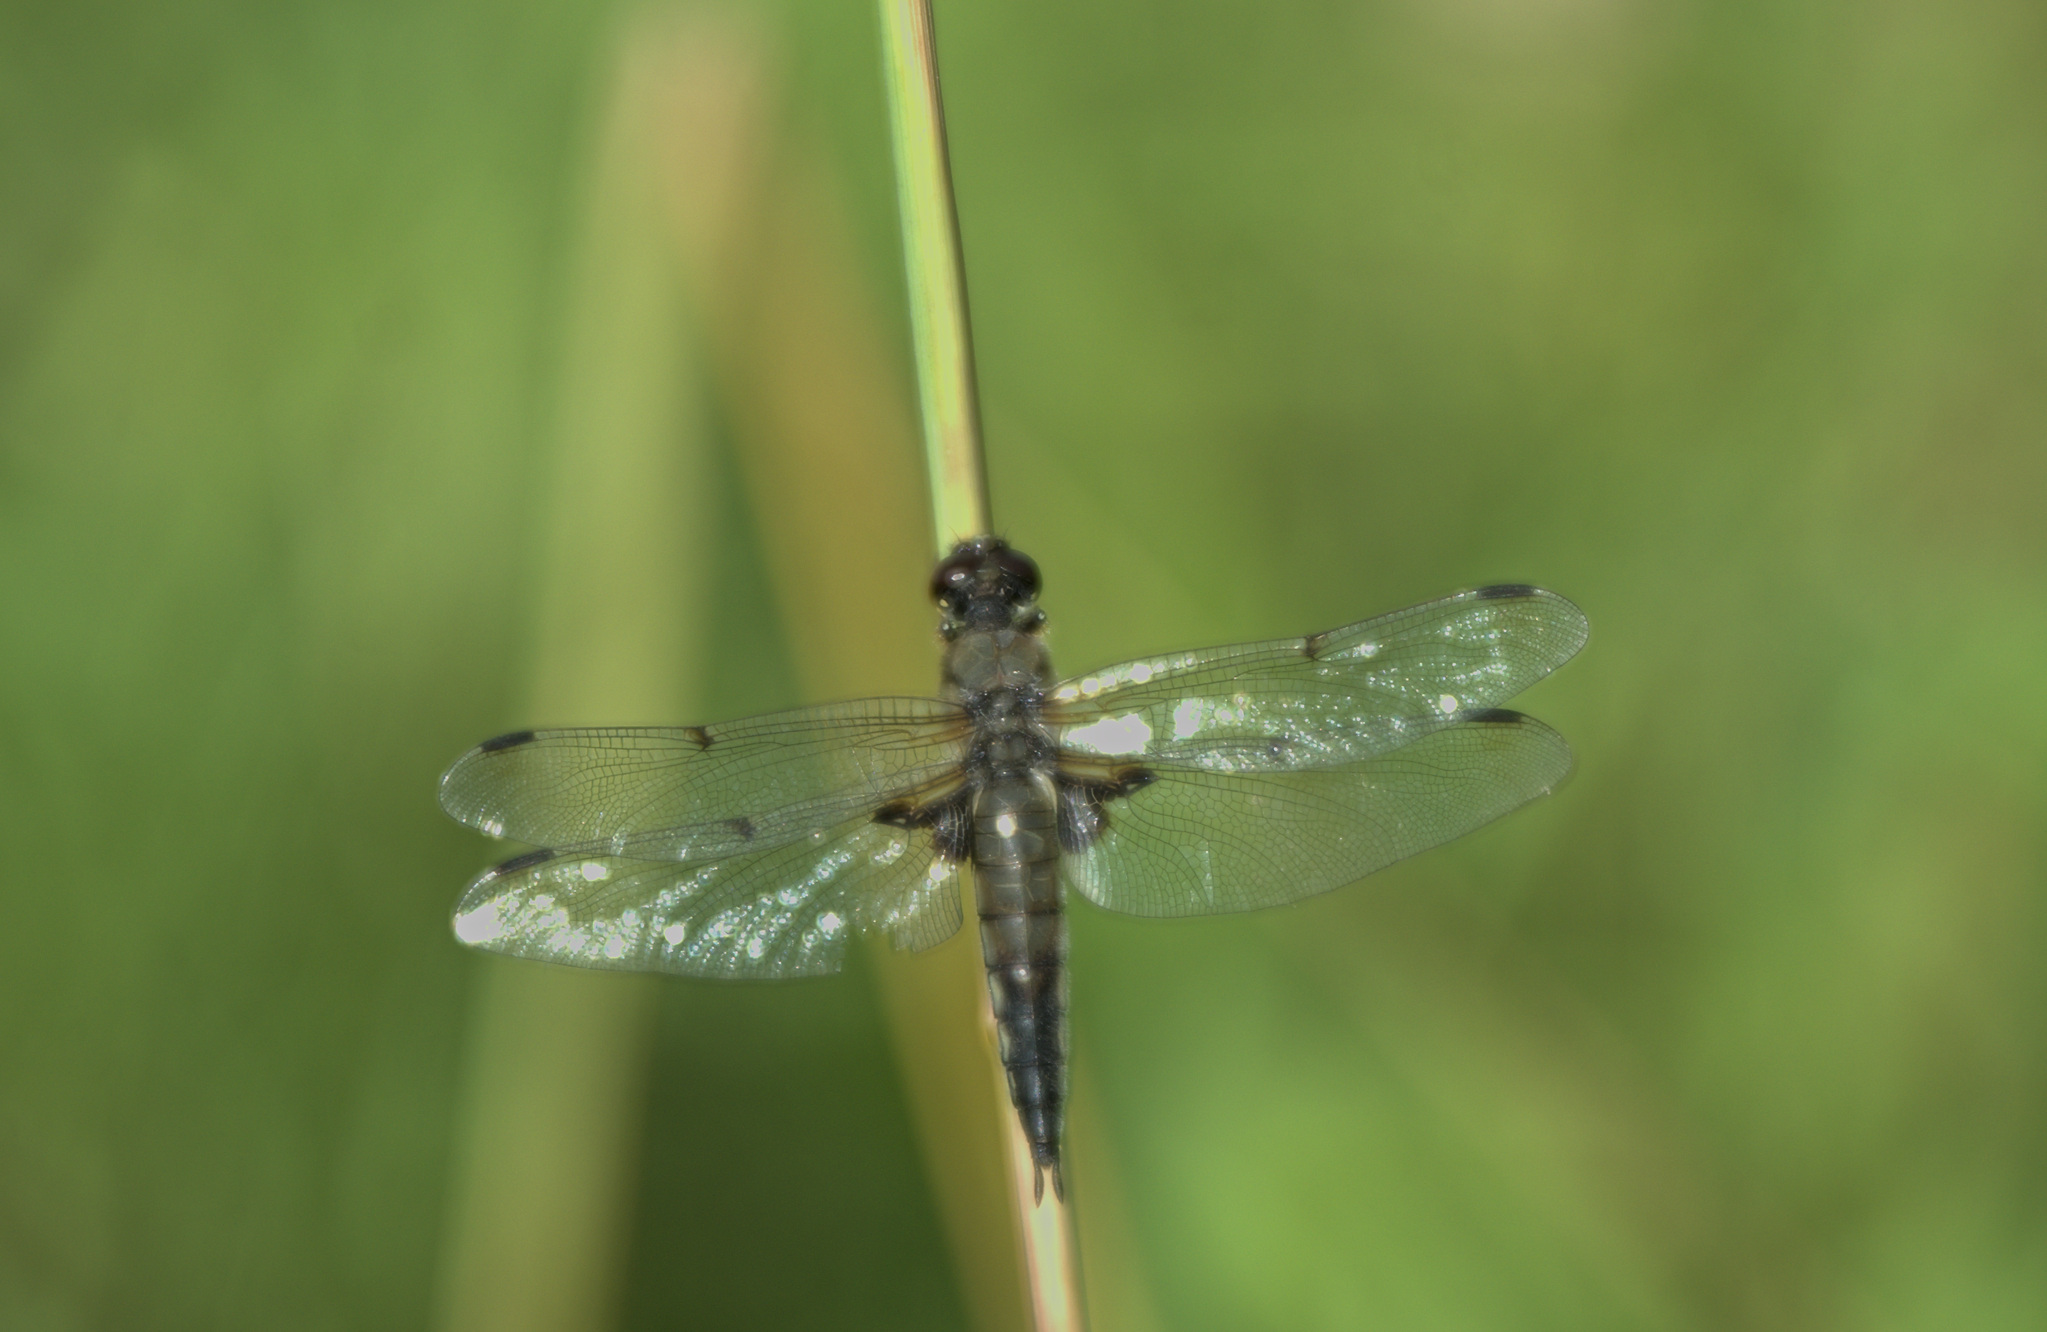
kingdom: Animalia
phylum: Arthropoda
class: Insecta
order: Odonata
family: Libellulidae
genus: Libellula
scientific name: Libellula quadrimaculata
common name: Four-spotted chaser
